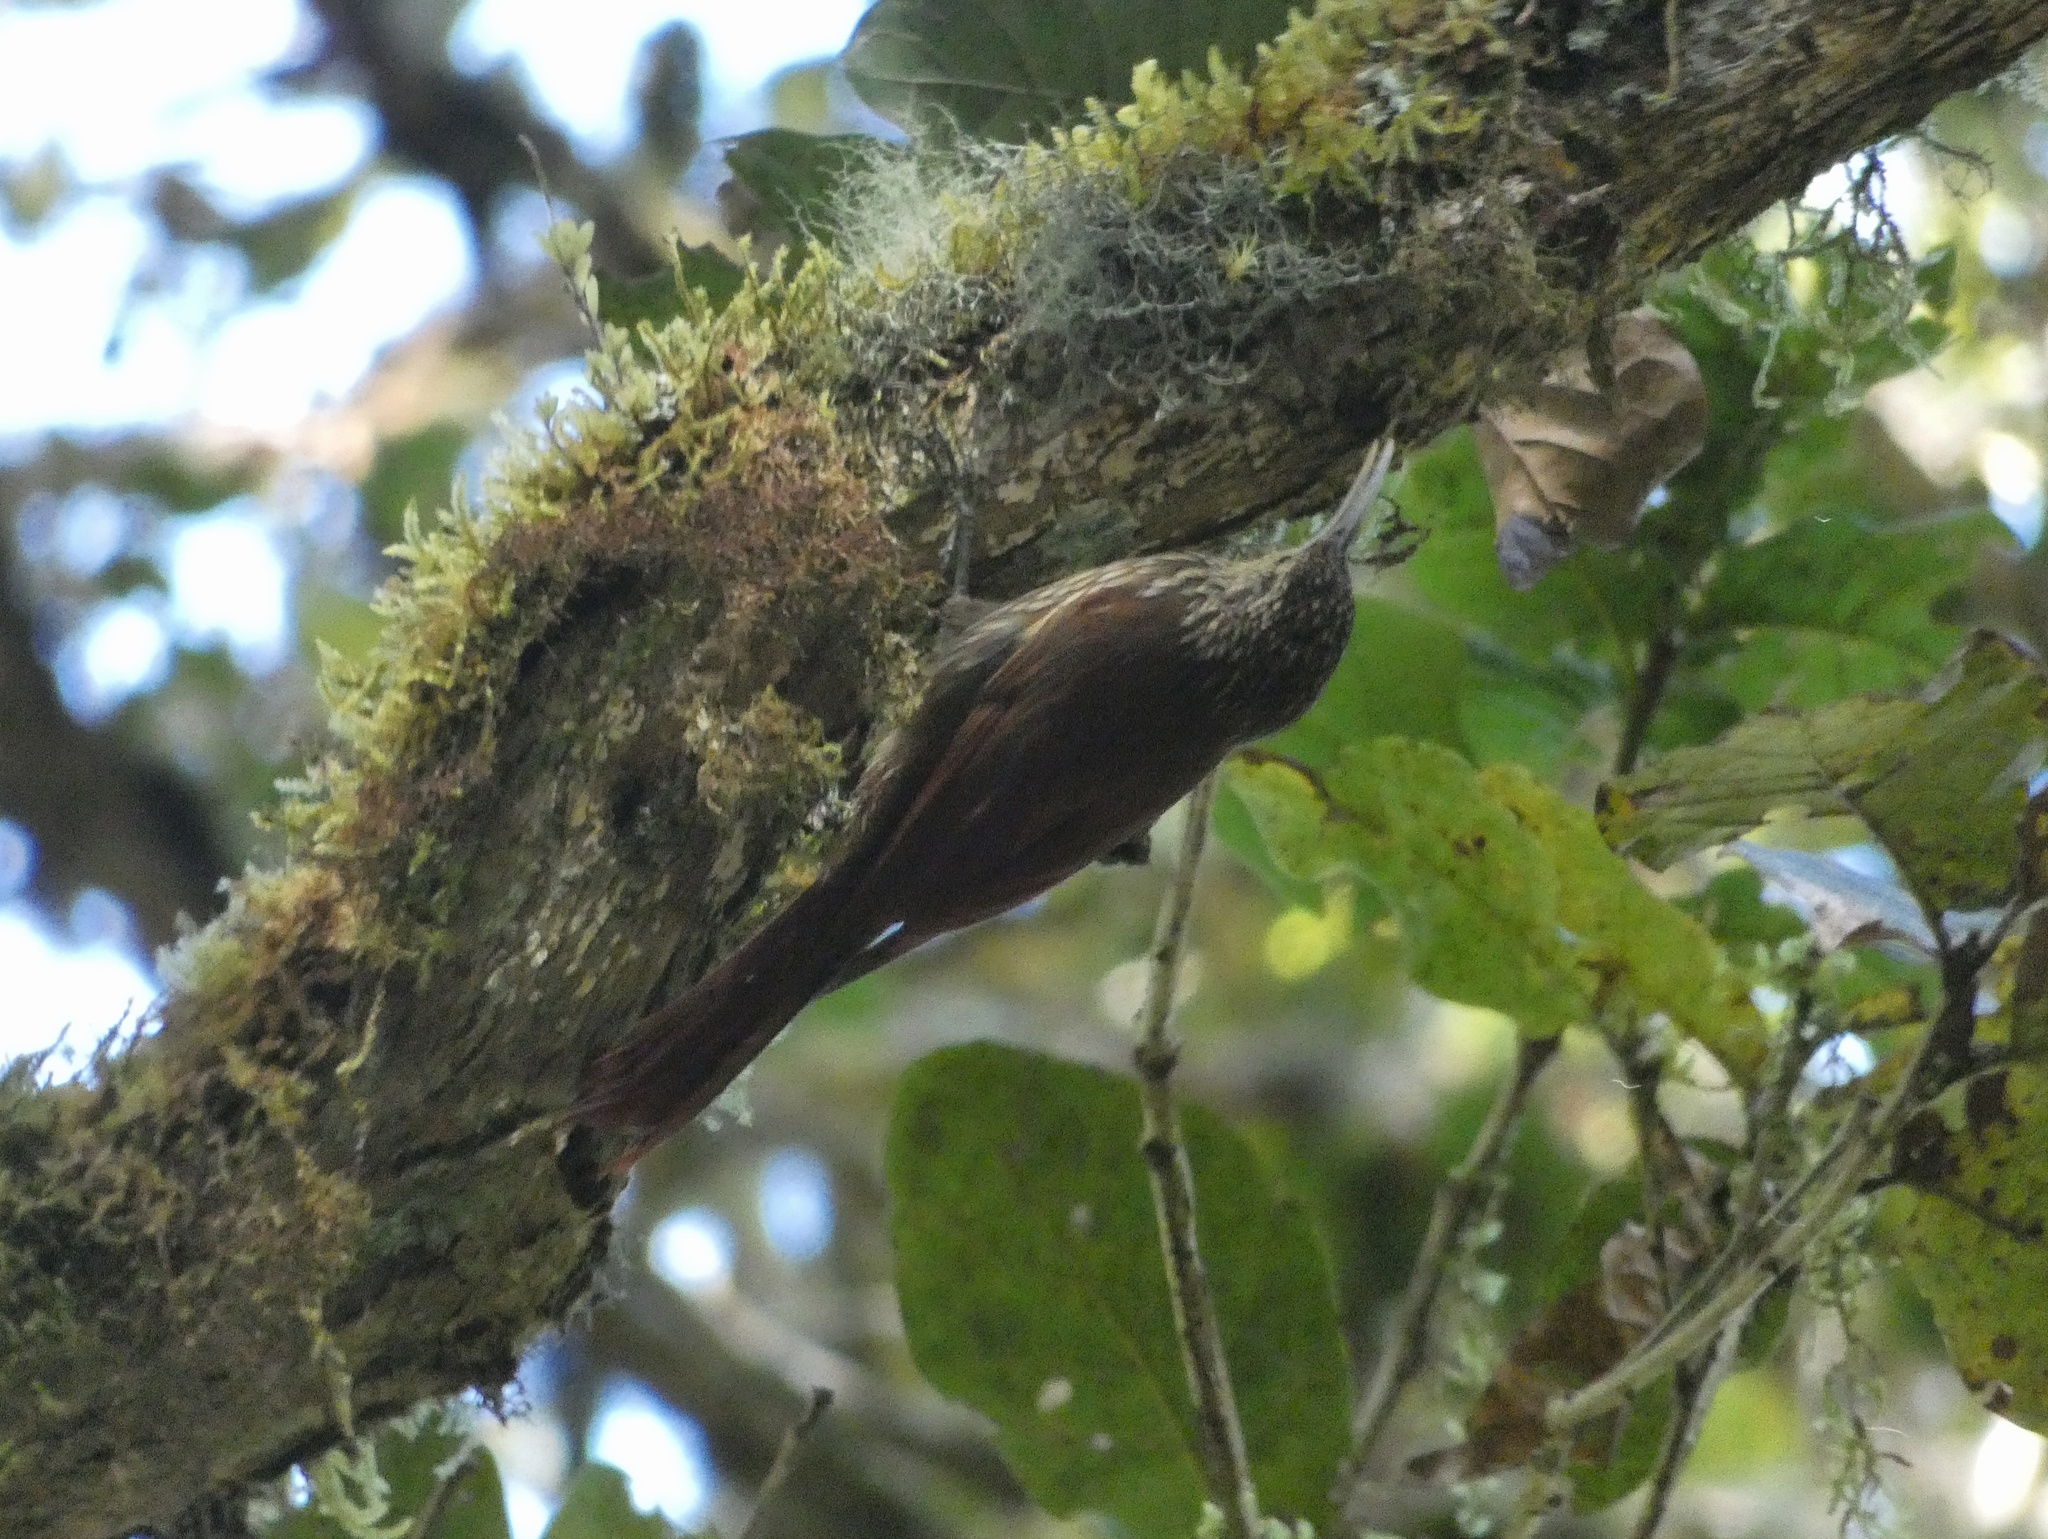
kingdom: Animalia
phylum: Chordata
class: Aves
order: Passeriformes
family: Furnariidae
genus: Lepidocolaptes
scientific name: Lepidocolaptes affinis
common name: Spot-crowned woodcreeper
